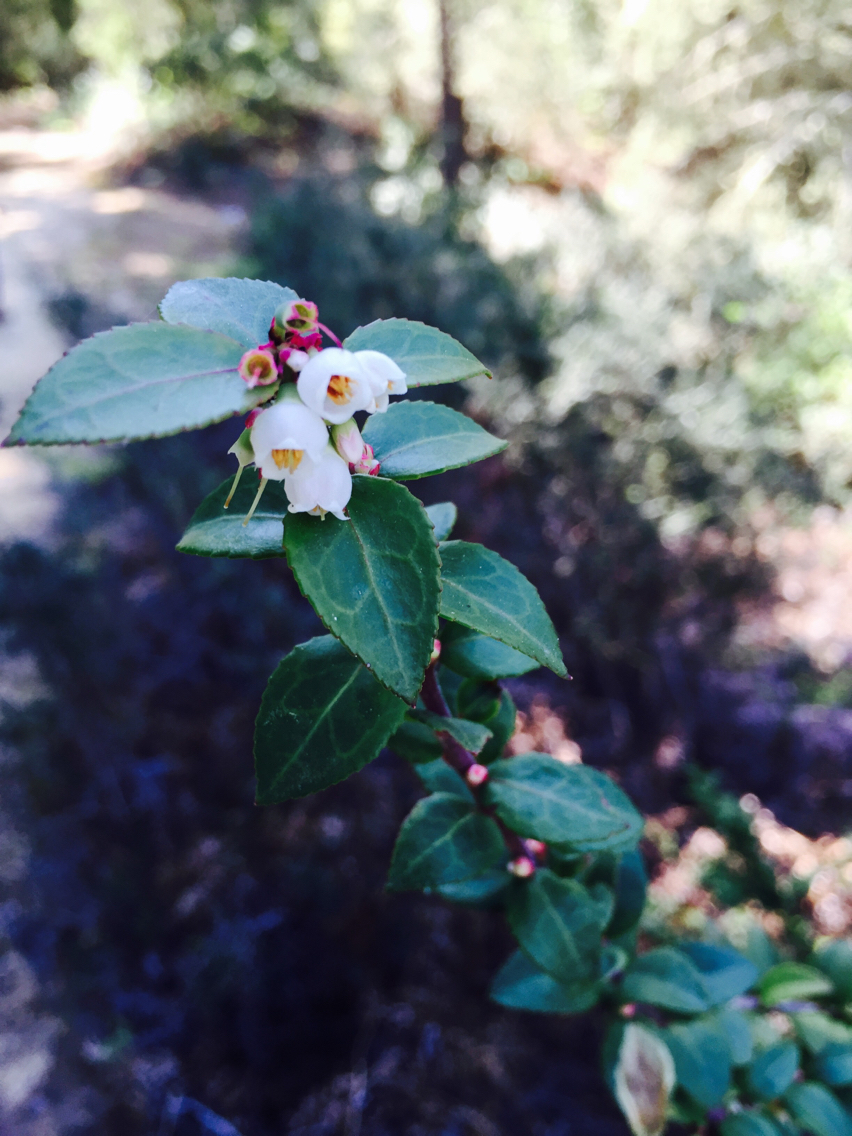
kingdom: Plantae
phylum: Tracheophyta
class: Magnoliopsida
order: Ericales
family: Ericaceae
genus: Vaccinium
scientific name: Vaccinium ovatum
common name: California-huckleberry
